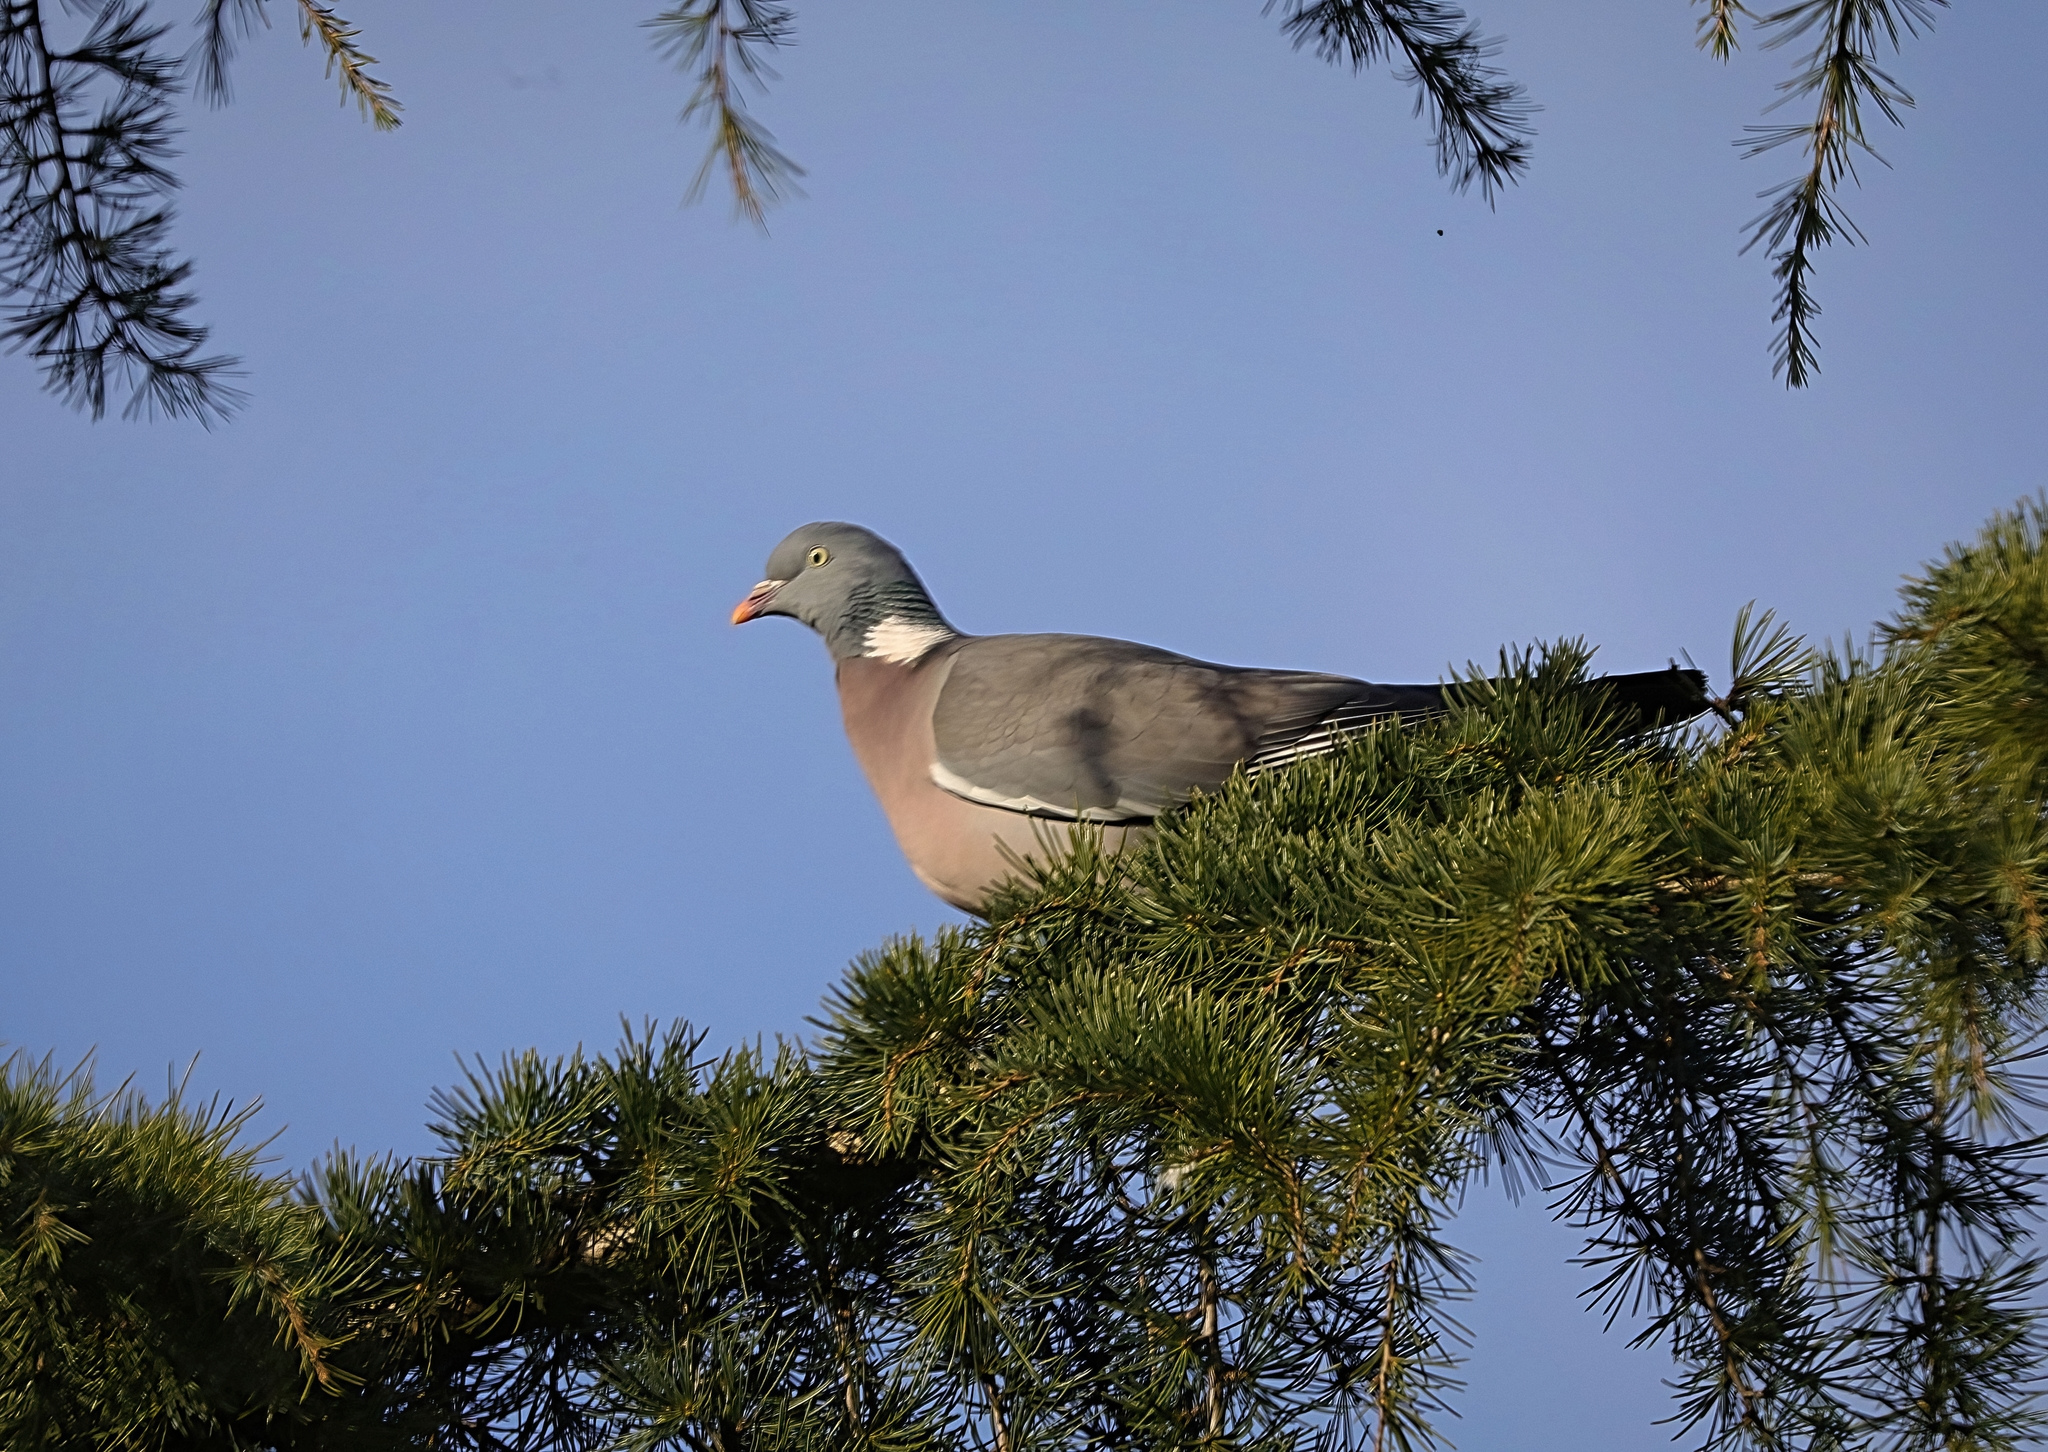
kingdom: Animalia
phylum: Chordata
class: Aves
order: Columbiformes
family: Columbidae
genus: Columba
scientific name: Columba palumbus
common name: Common wood pigeon
